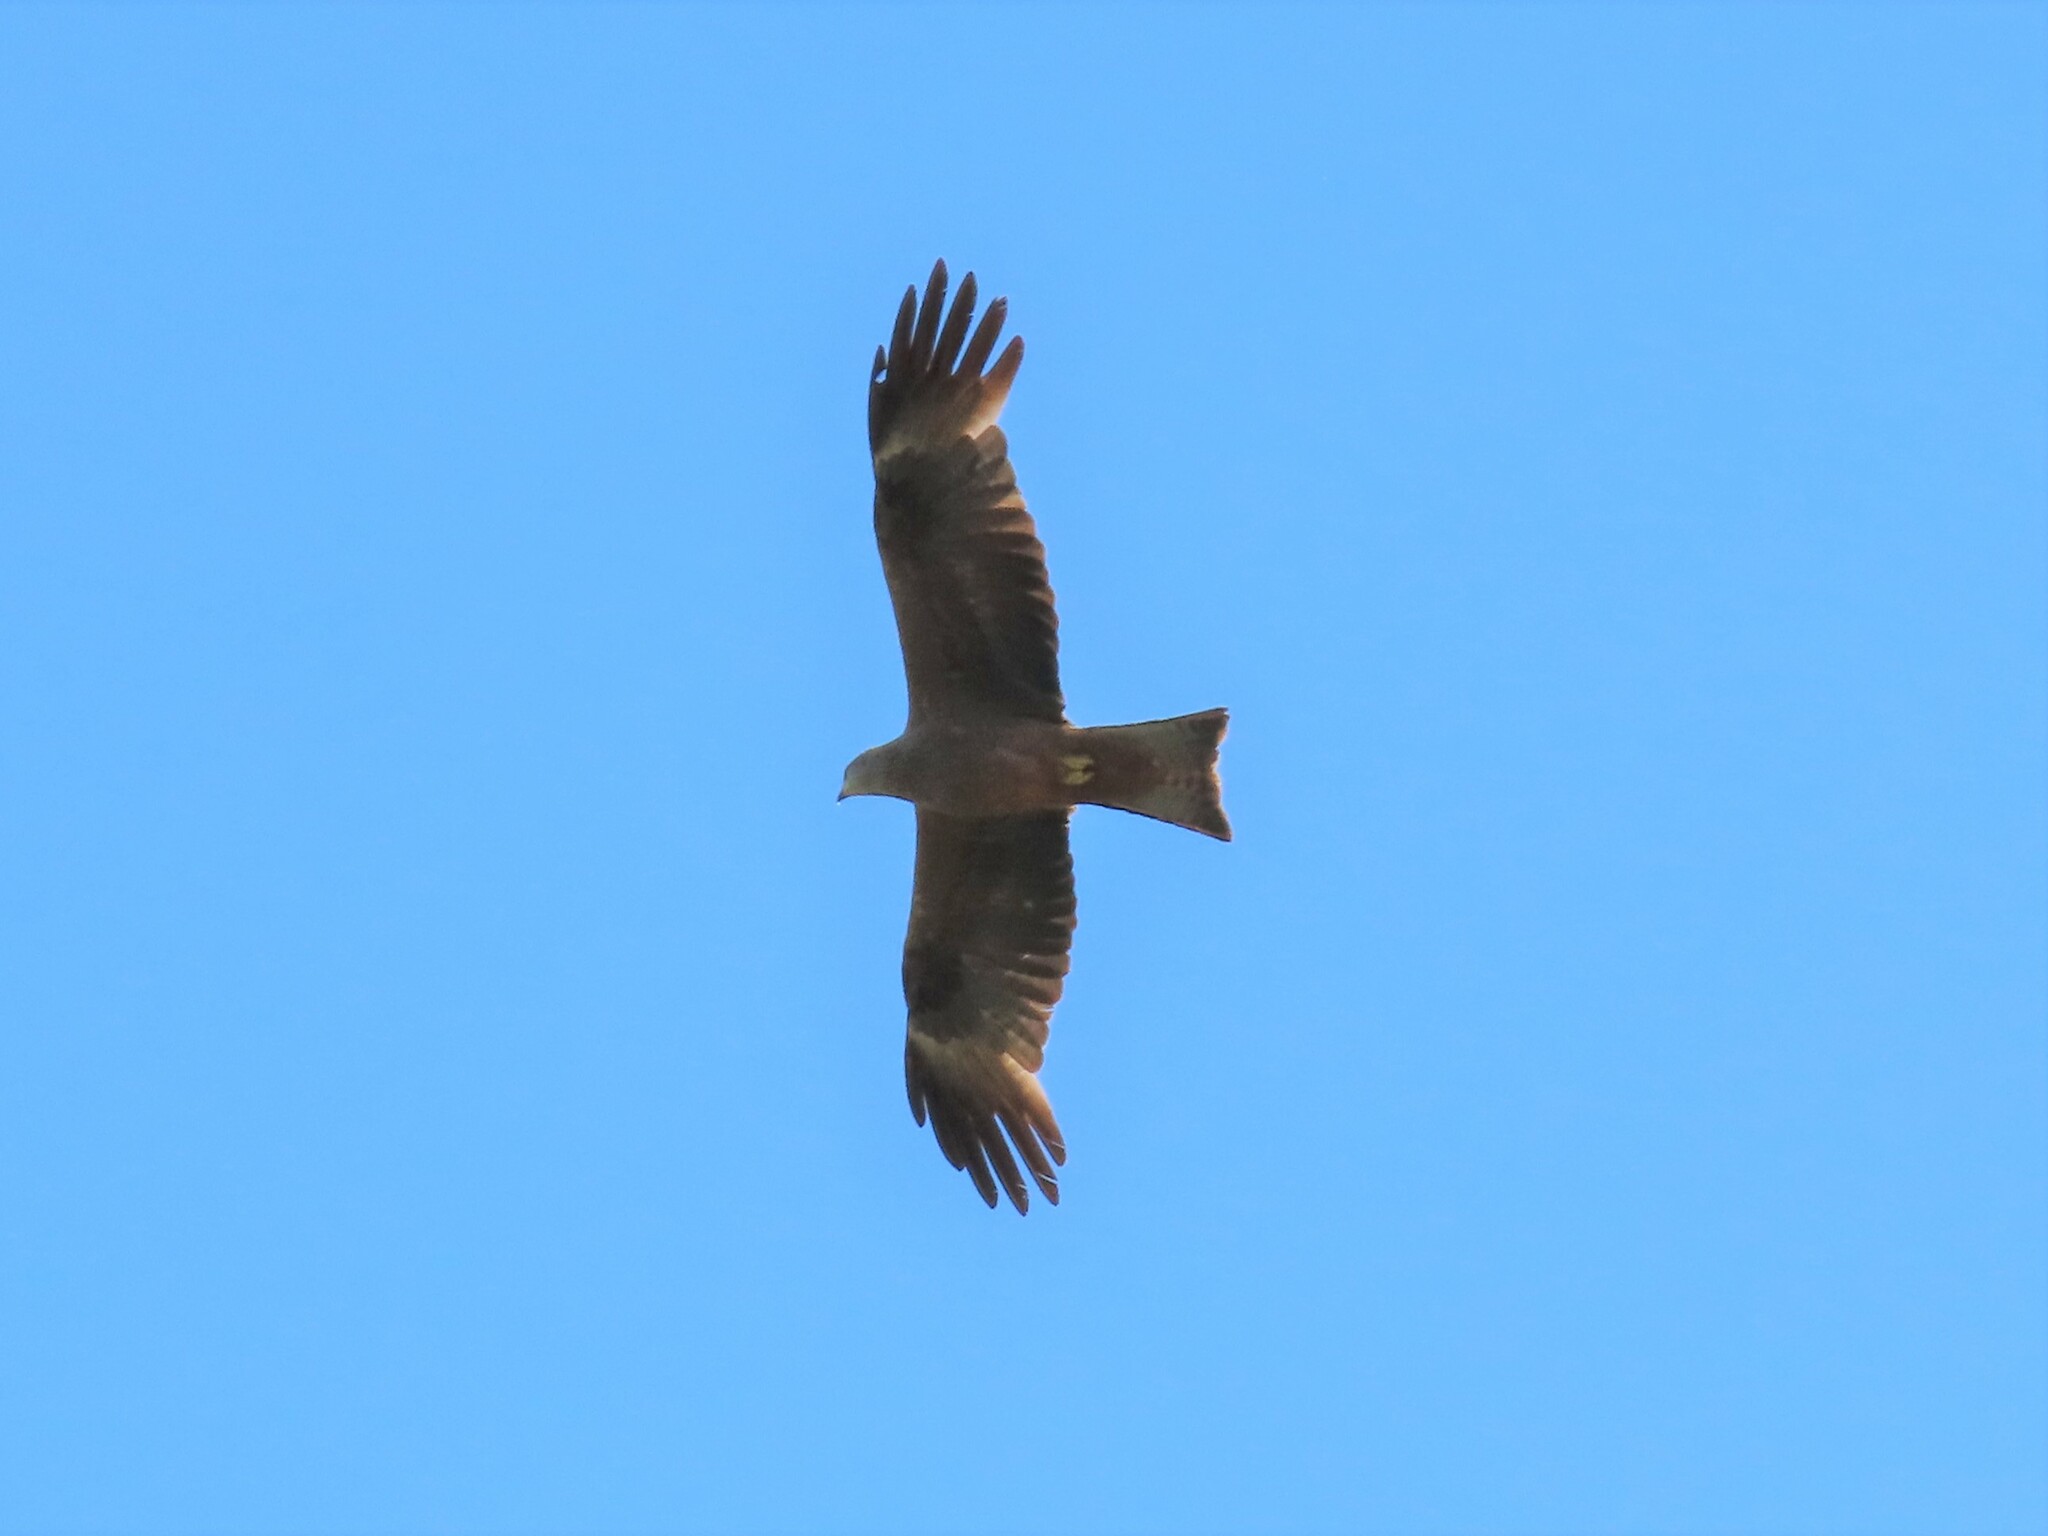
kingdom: Animalia
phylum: Chordata
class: Aves
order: Accipitriformes
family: Accipitridae
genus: Milvus
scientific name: Milvus migrans
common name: Black kite
